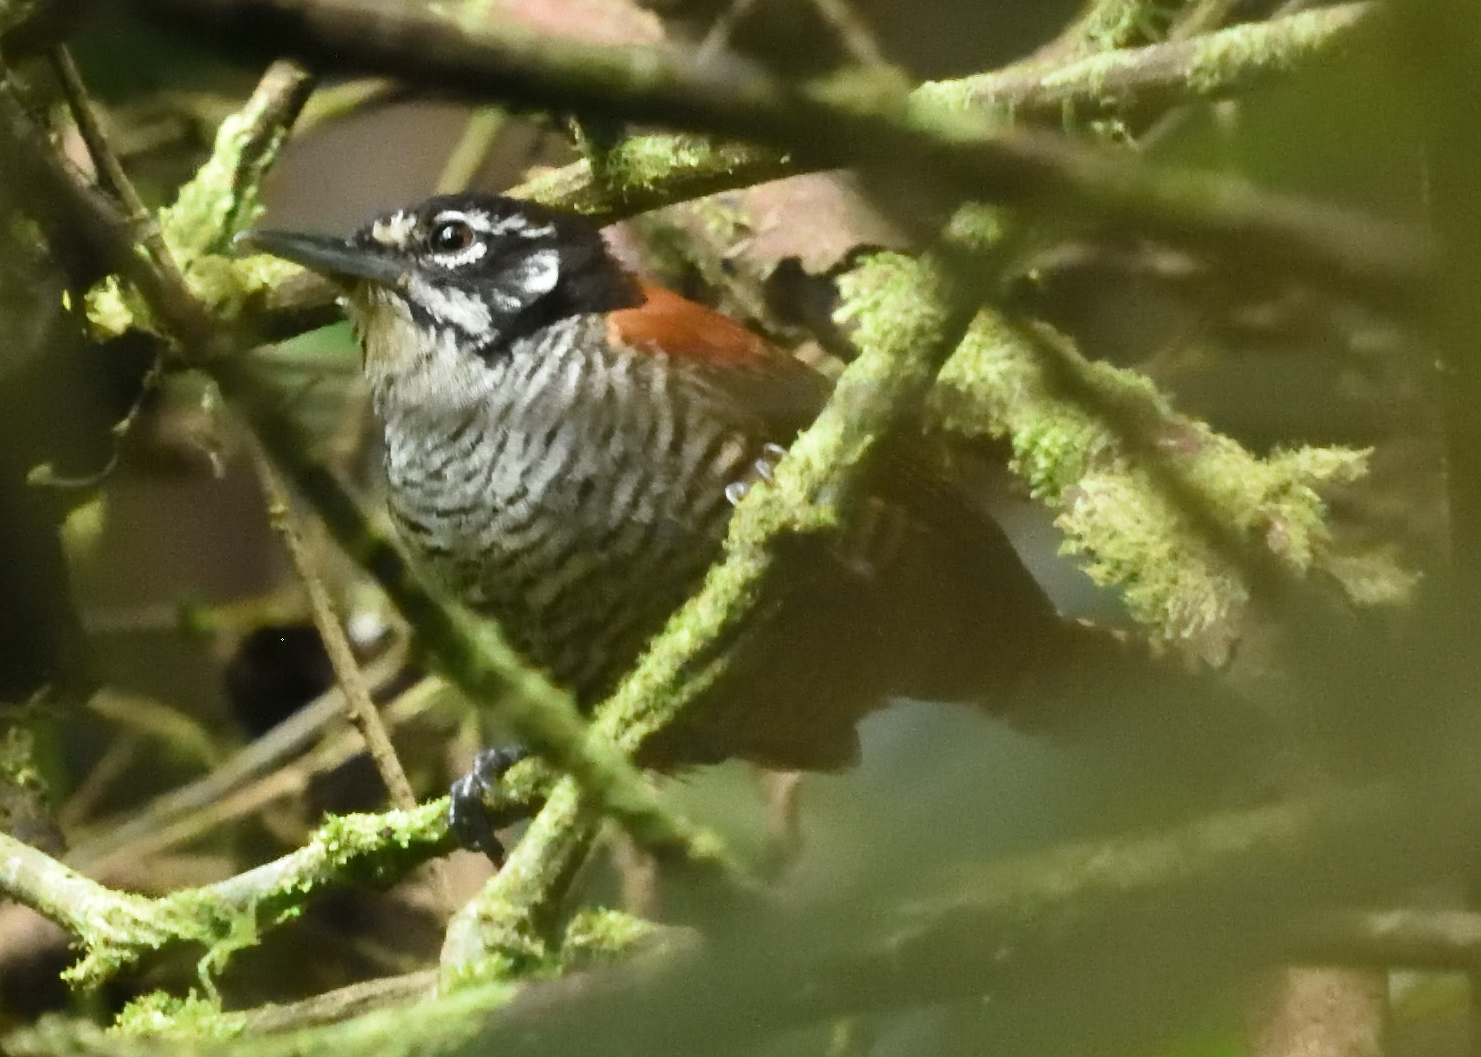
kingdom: Animalia
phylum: Chordata
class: Aves
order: Passeriformes
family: Troglodytidae
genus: Cantorchilus
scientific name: Cantorchilus nigricapillus
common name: Bay wren
